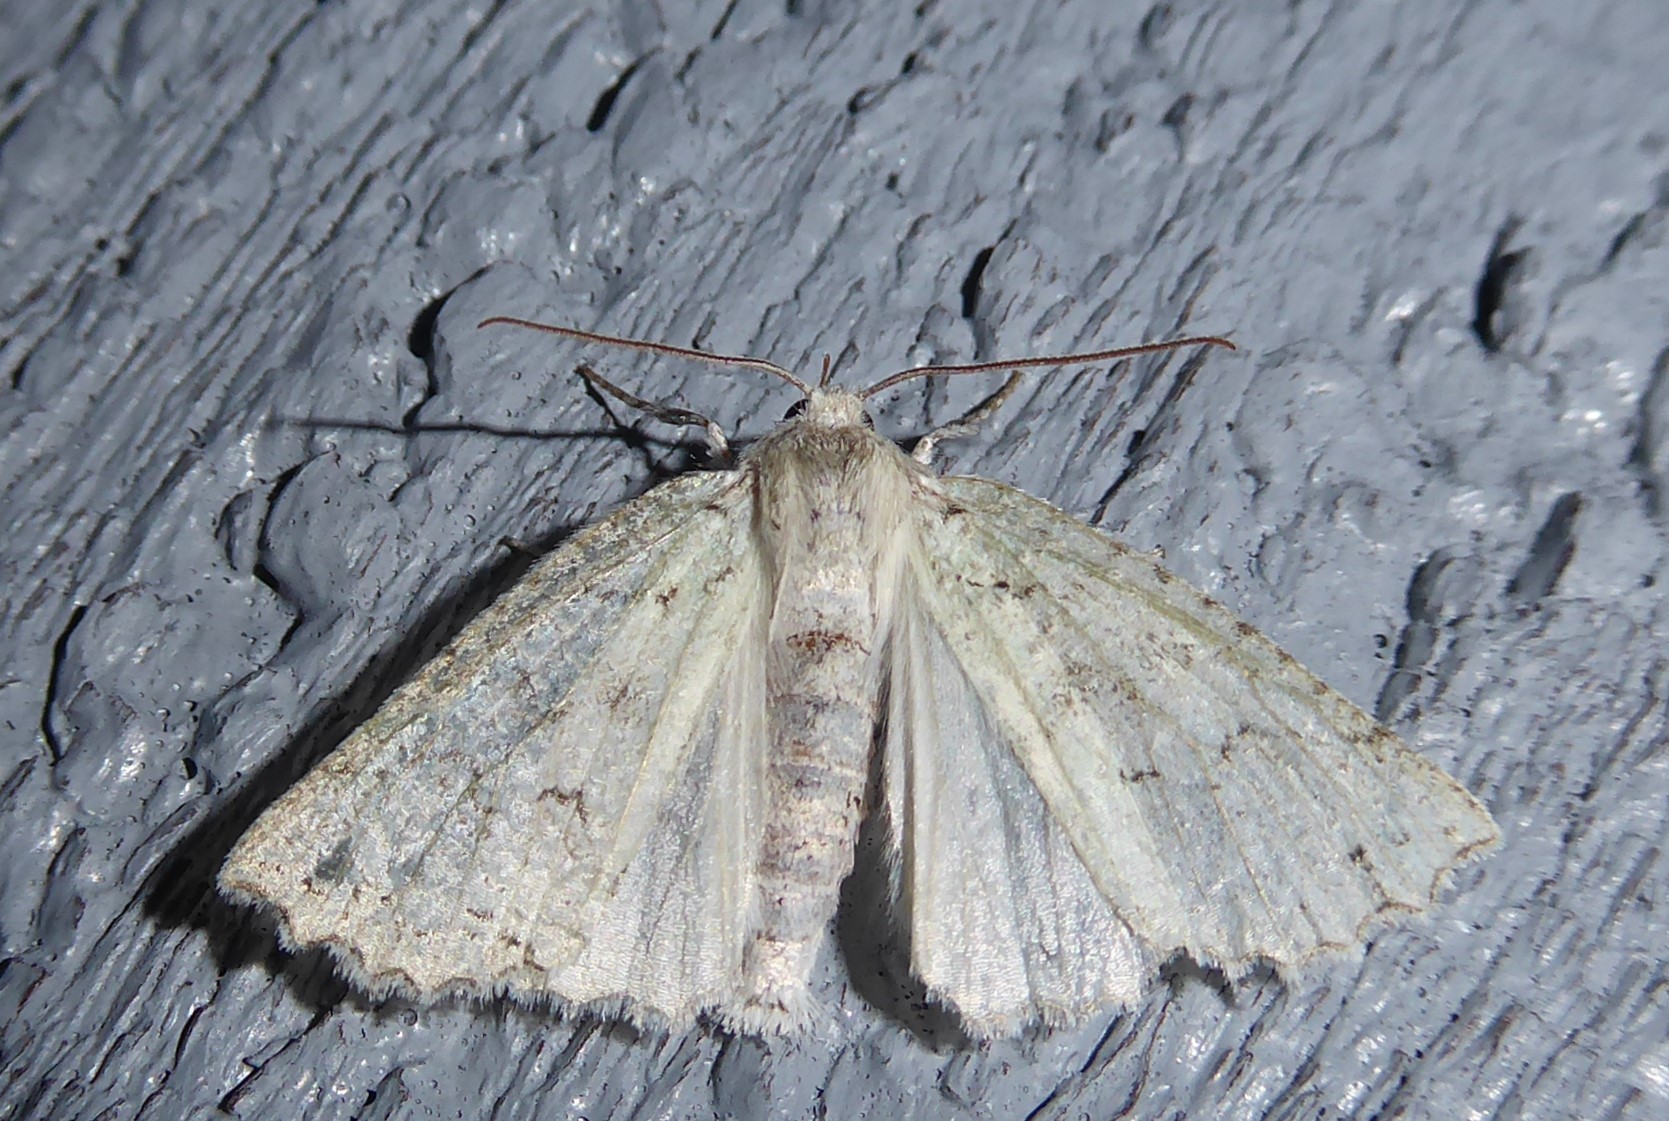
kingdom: Animalia
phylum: Arthropoda
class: Insecta
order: Lepidoptera
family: Geometridae
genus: Declana
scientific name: Declana niveata
